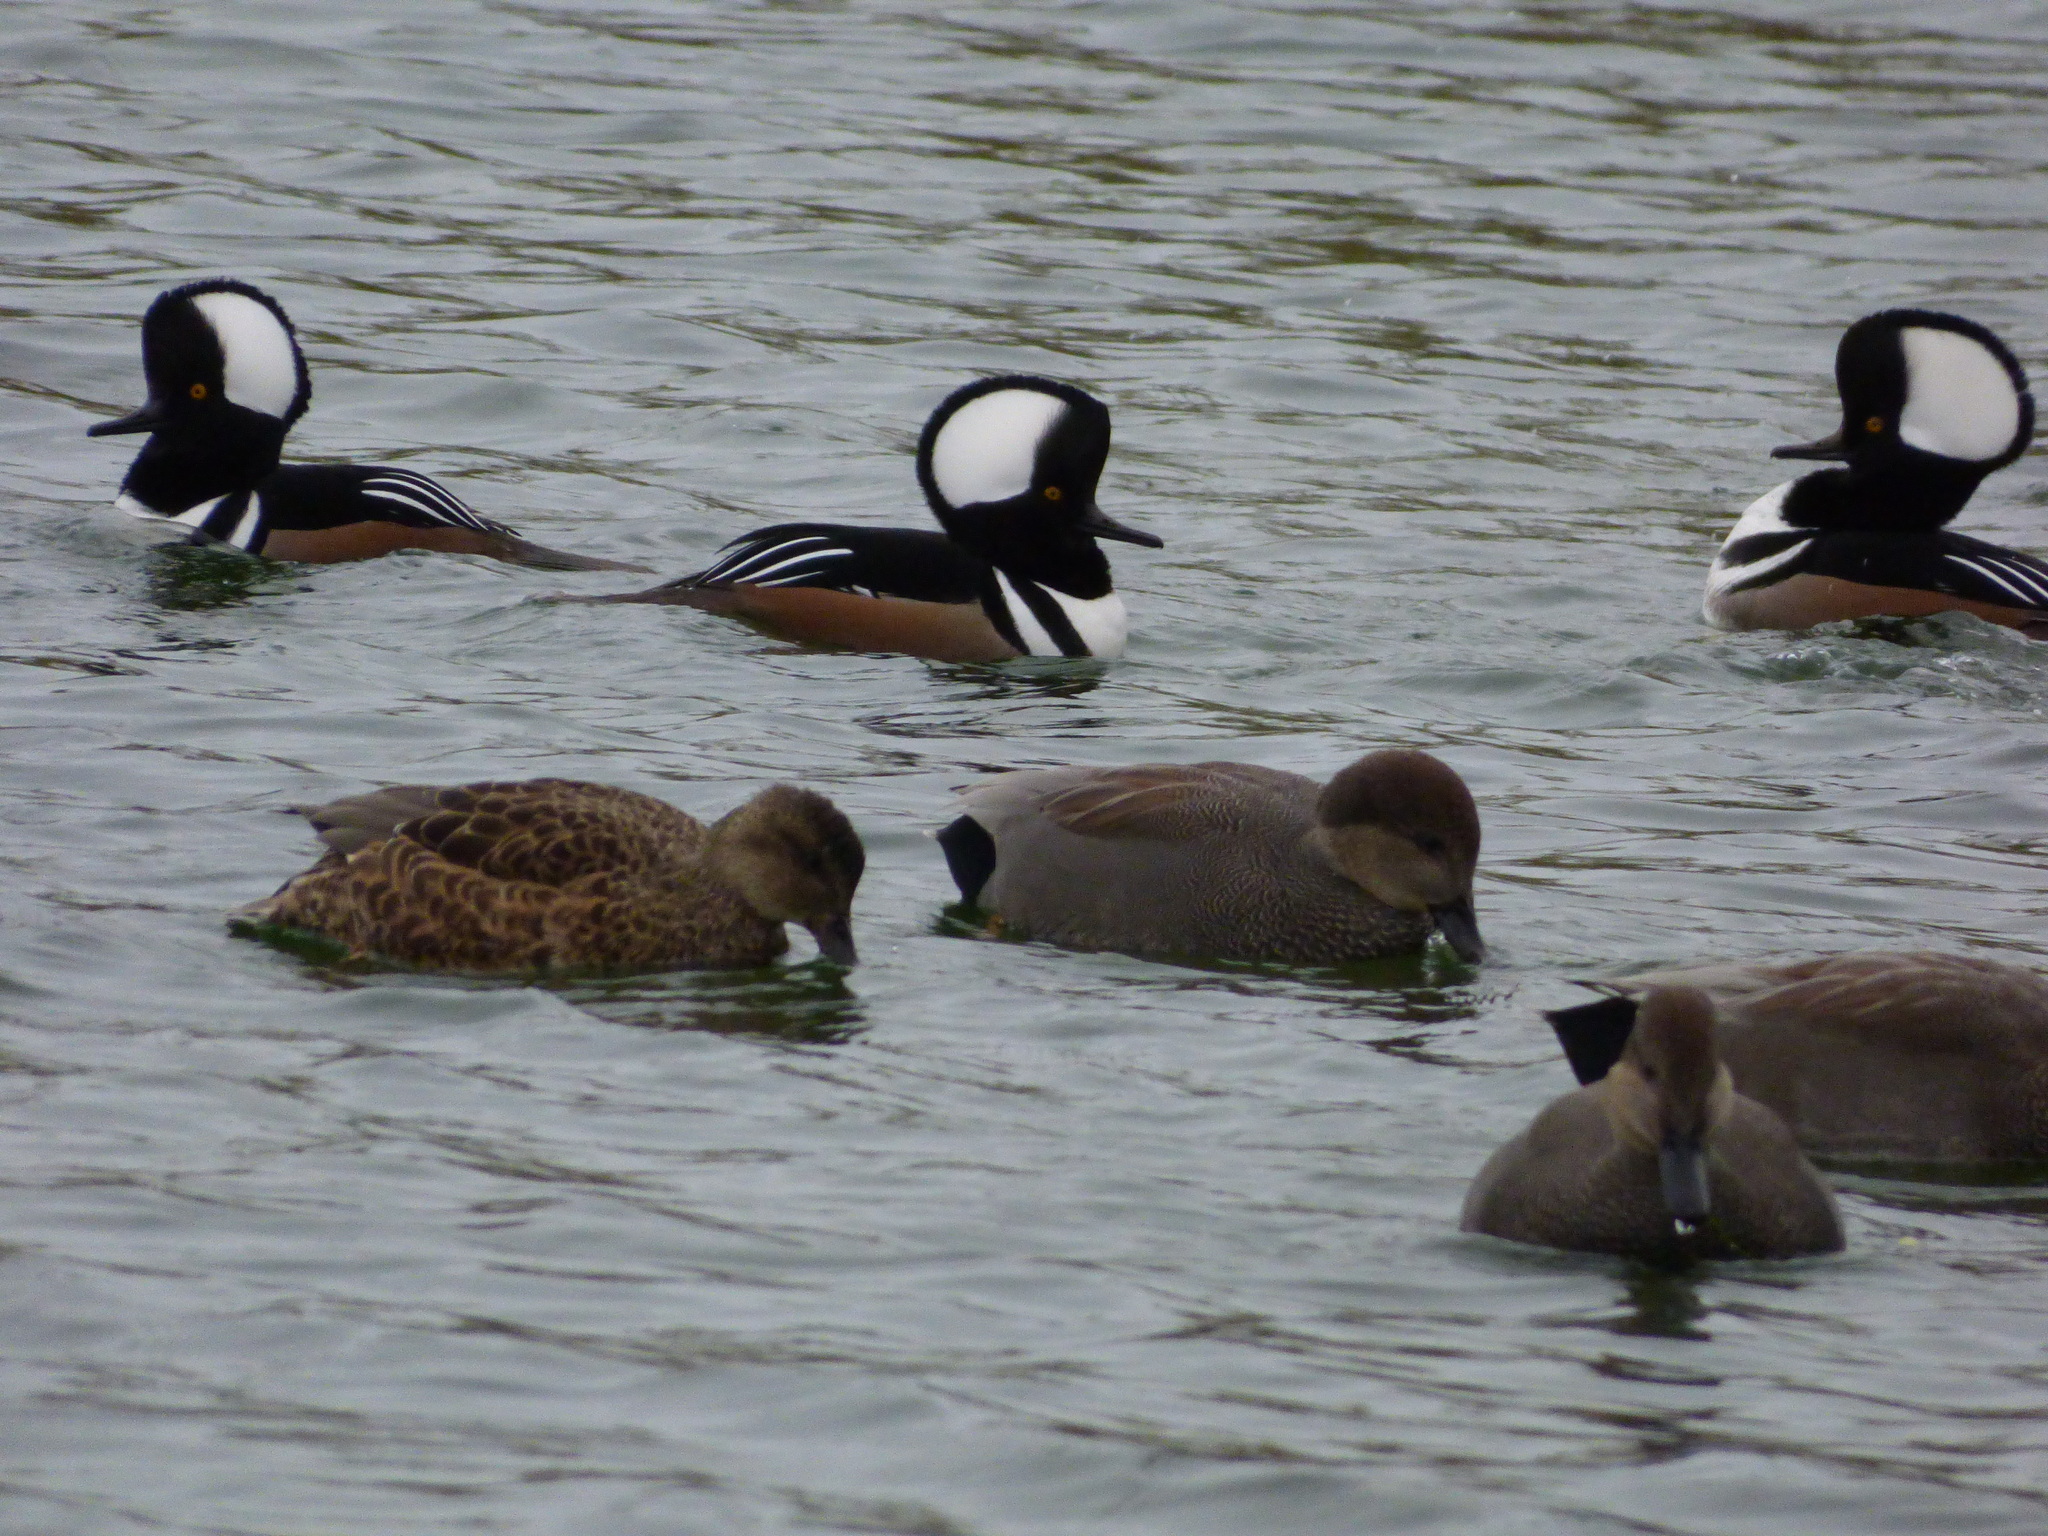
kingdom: Animalia
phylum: Chordata
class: Aves
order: Anseriformes
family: Anatidae
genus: Mareca
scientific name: Mareca strepera
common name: Gadwall
